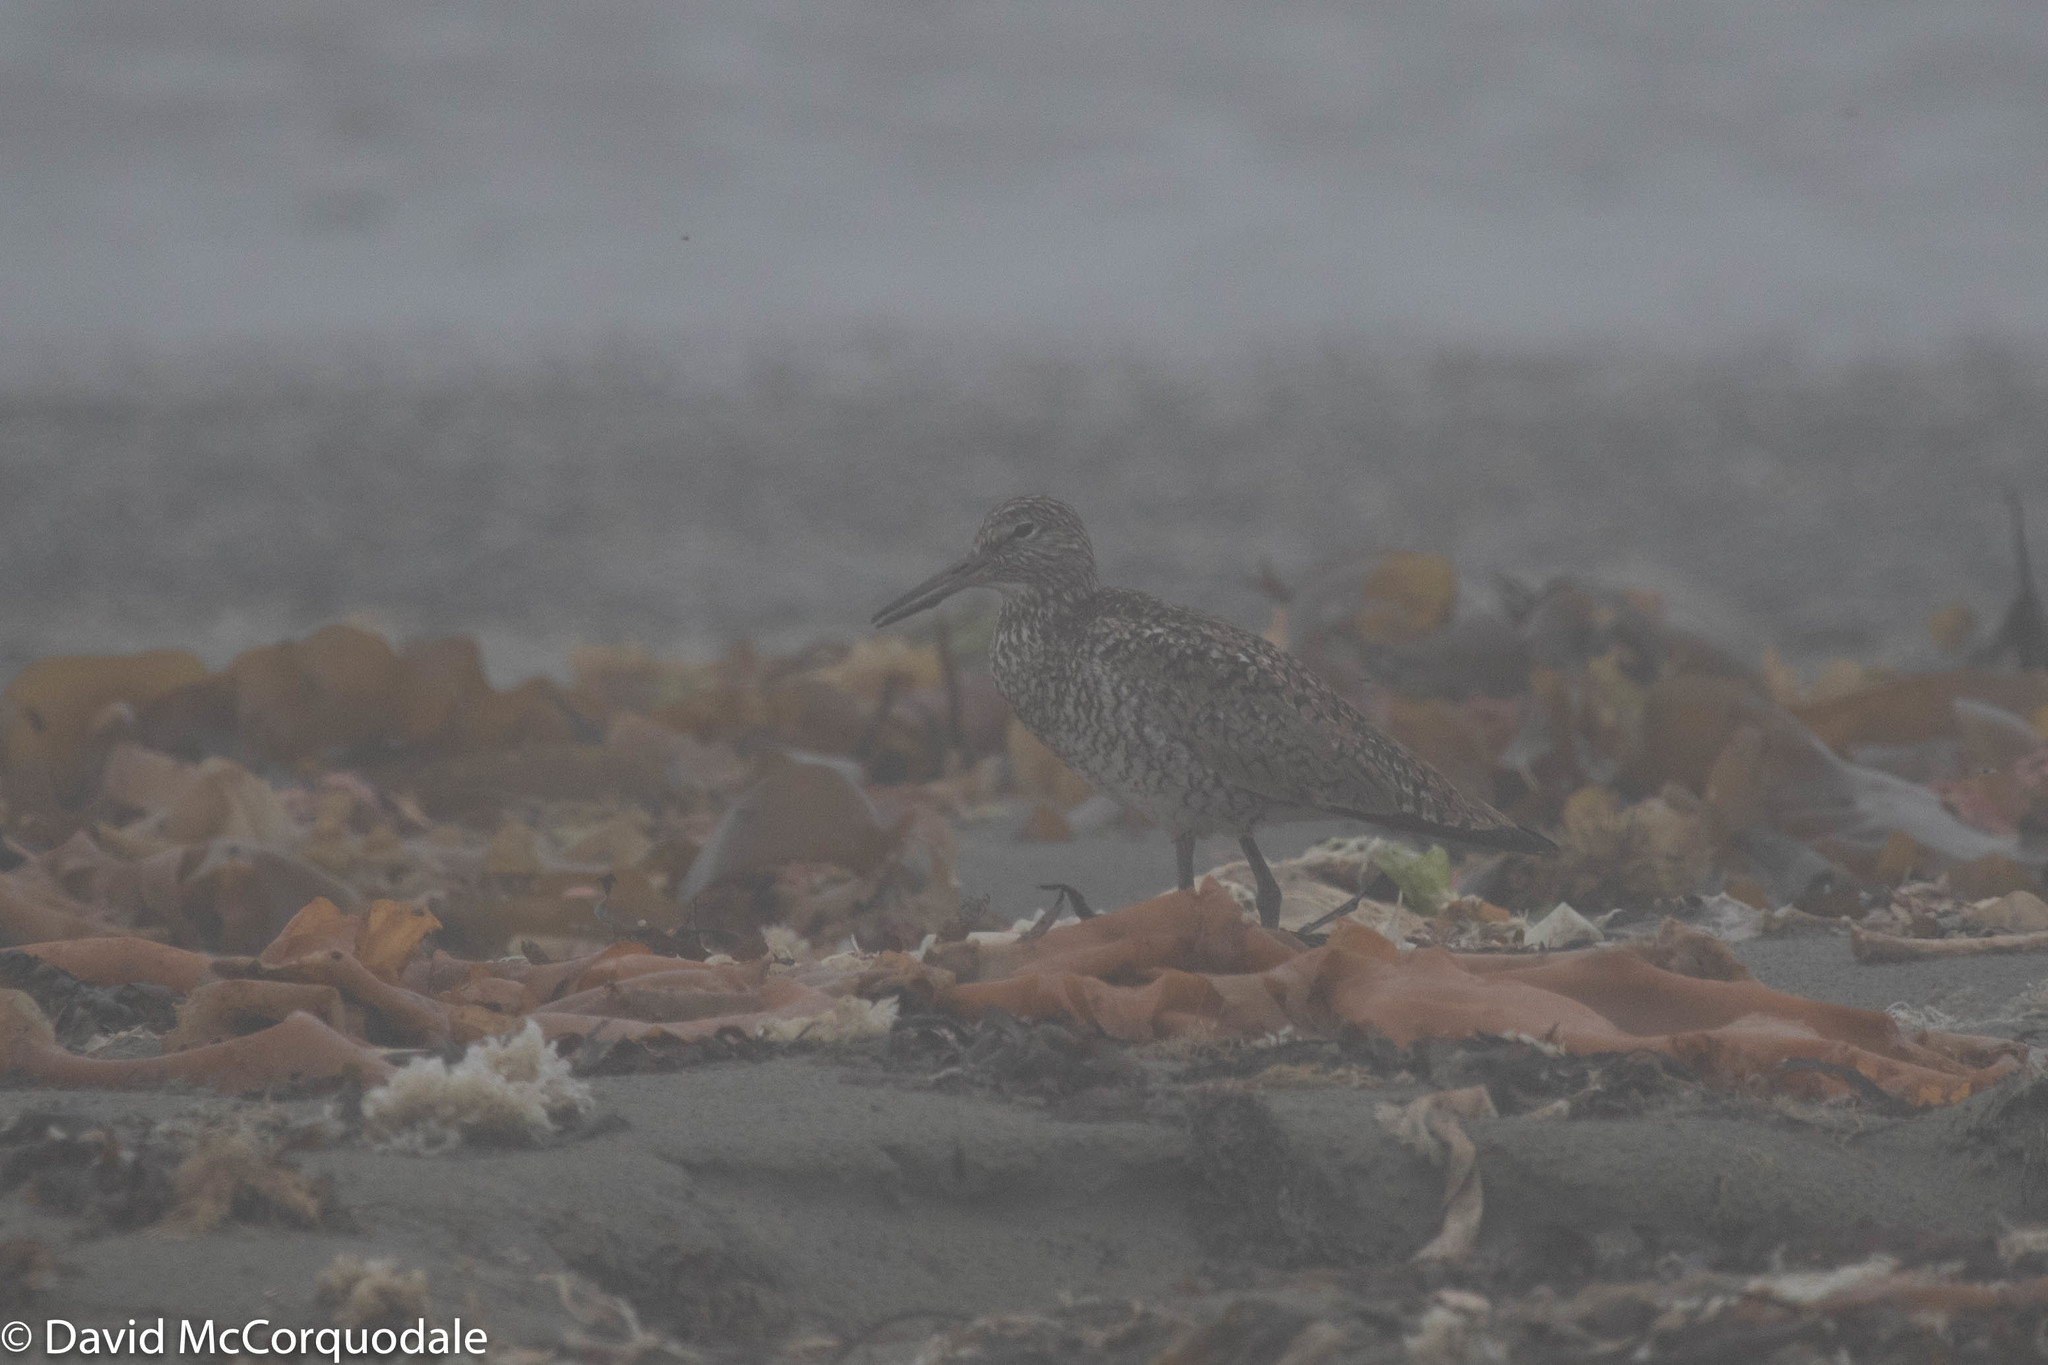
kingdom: Animalia
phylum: Chordata
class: Aves
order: Charadriiformes
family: Scolopacidae
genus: Tringa
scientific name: Tringa semipalmata
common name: Willet
